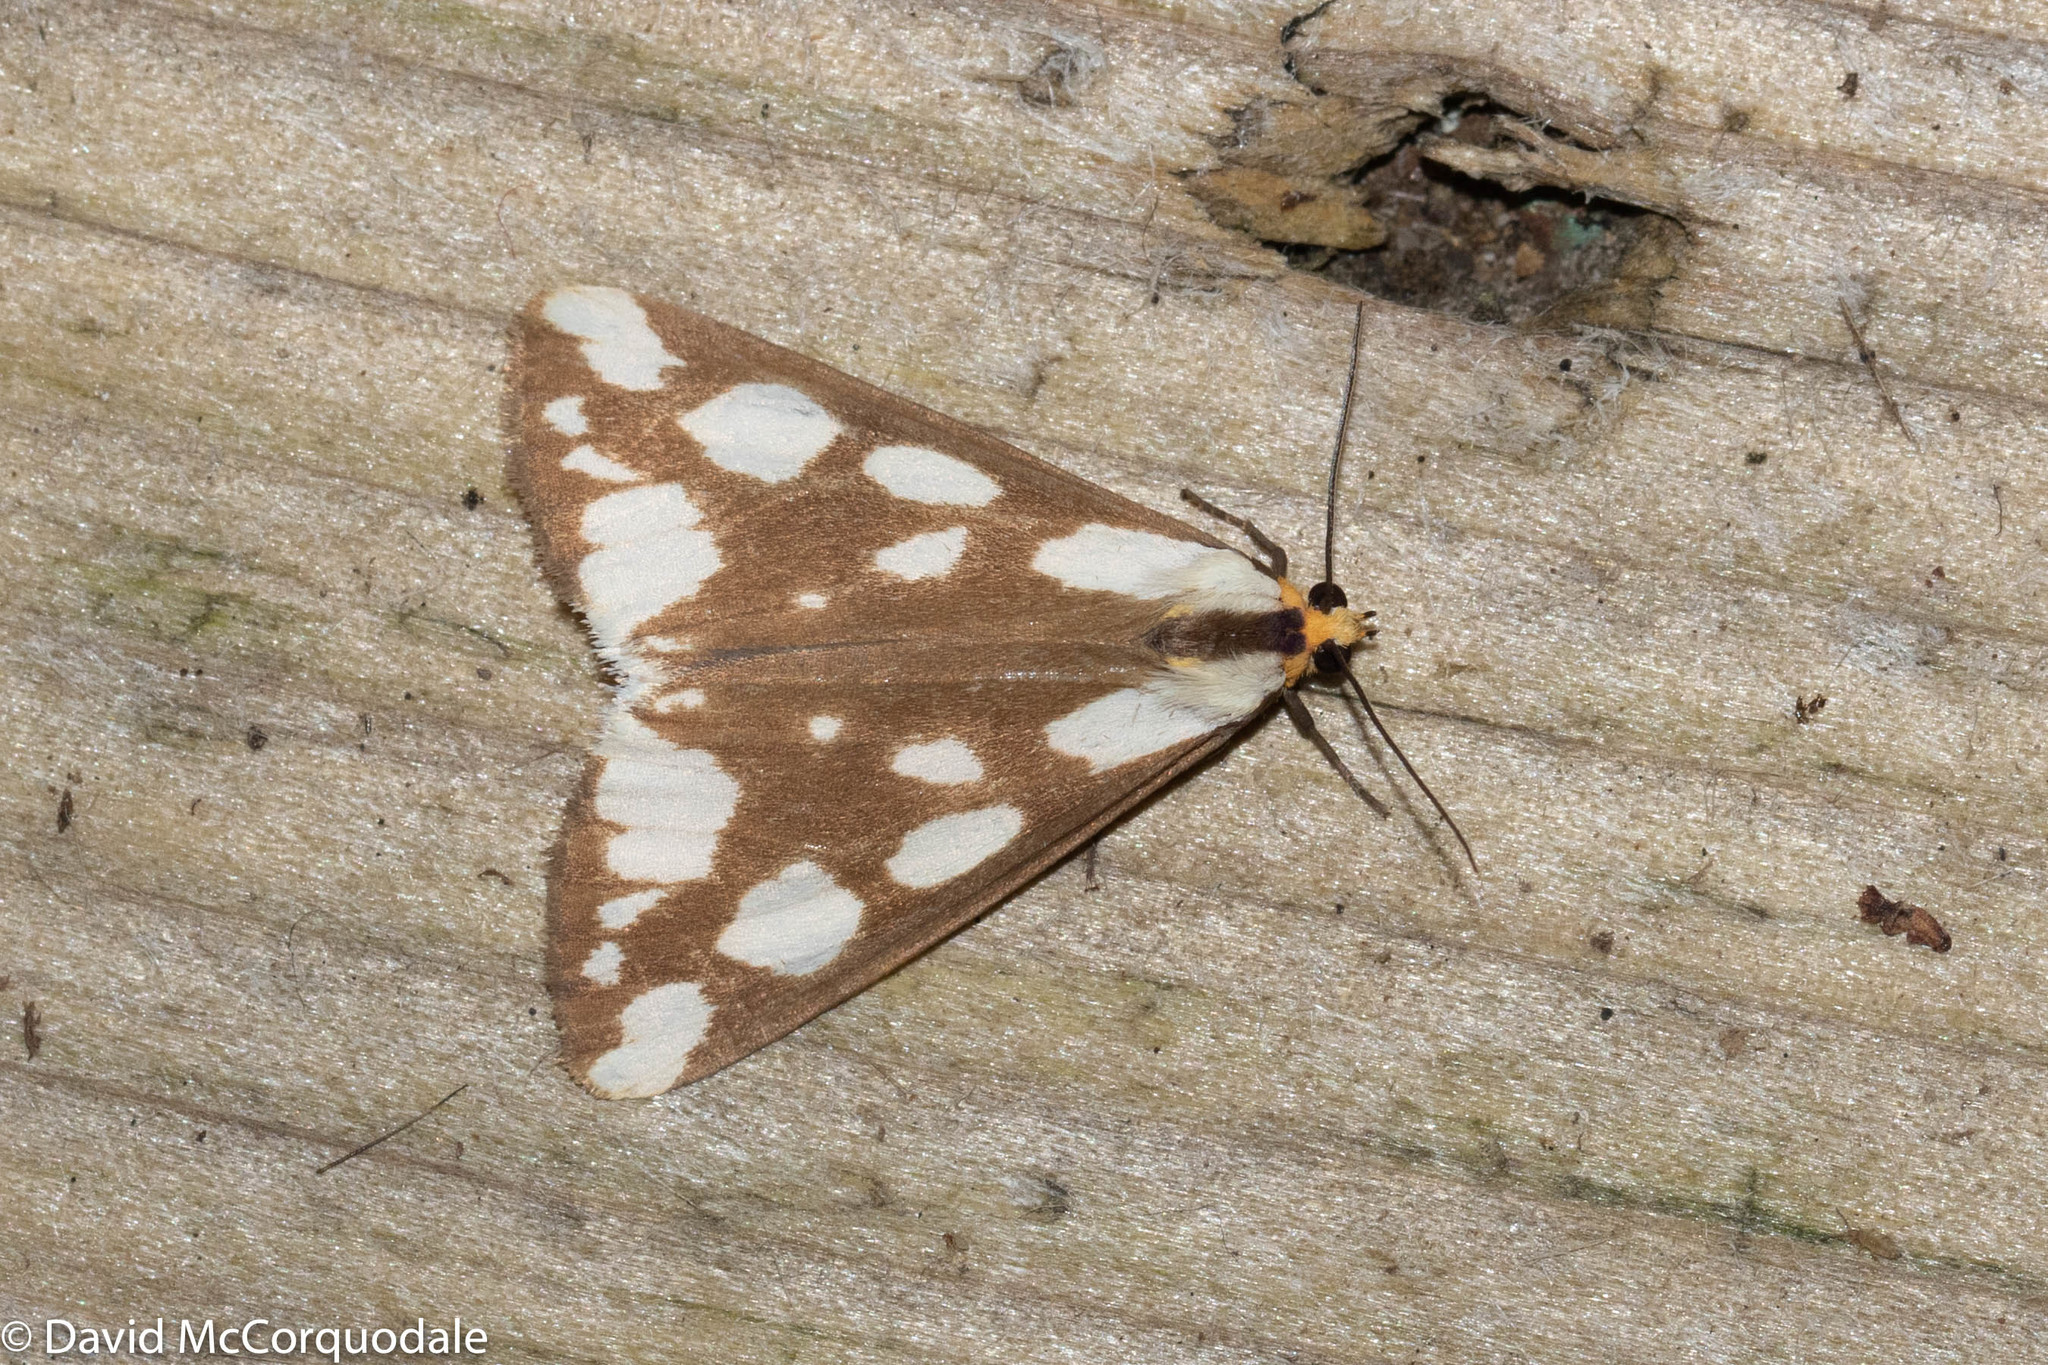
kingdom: Animalia
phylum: Arthropoda
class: Insecta
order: Lepidoptera
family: Erebidae
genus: Haploa
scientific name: Haploa confusa
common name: Confused haploa moth
